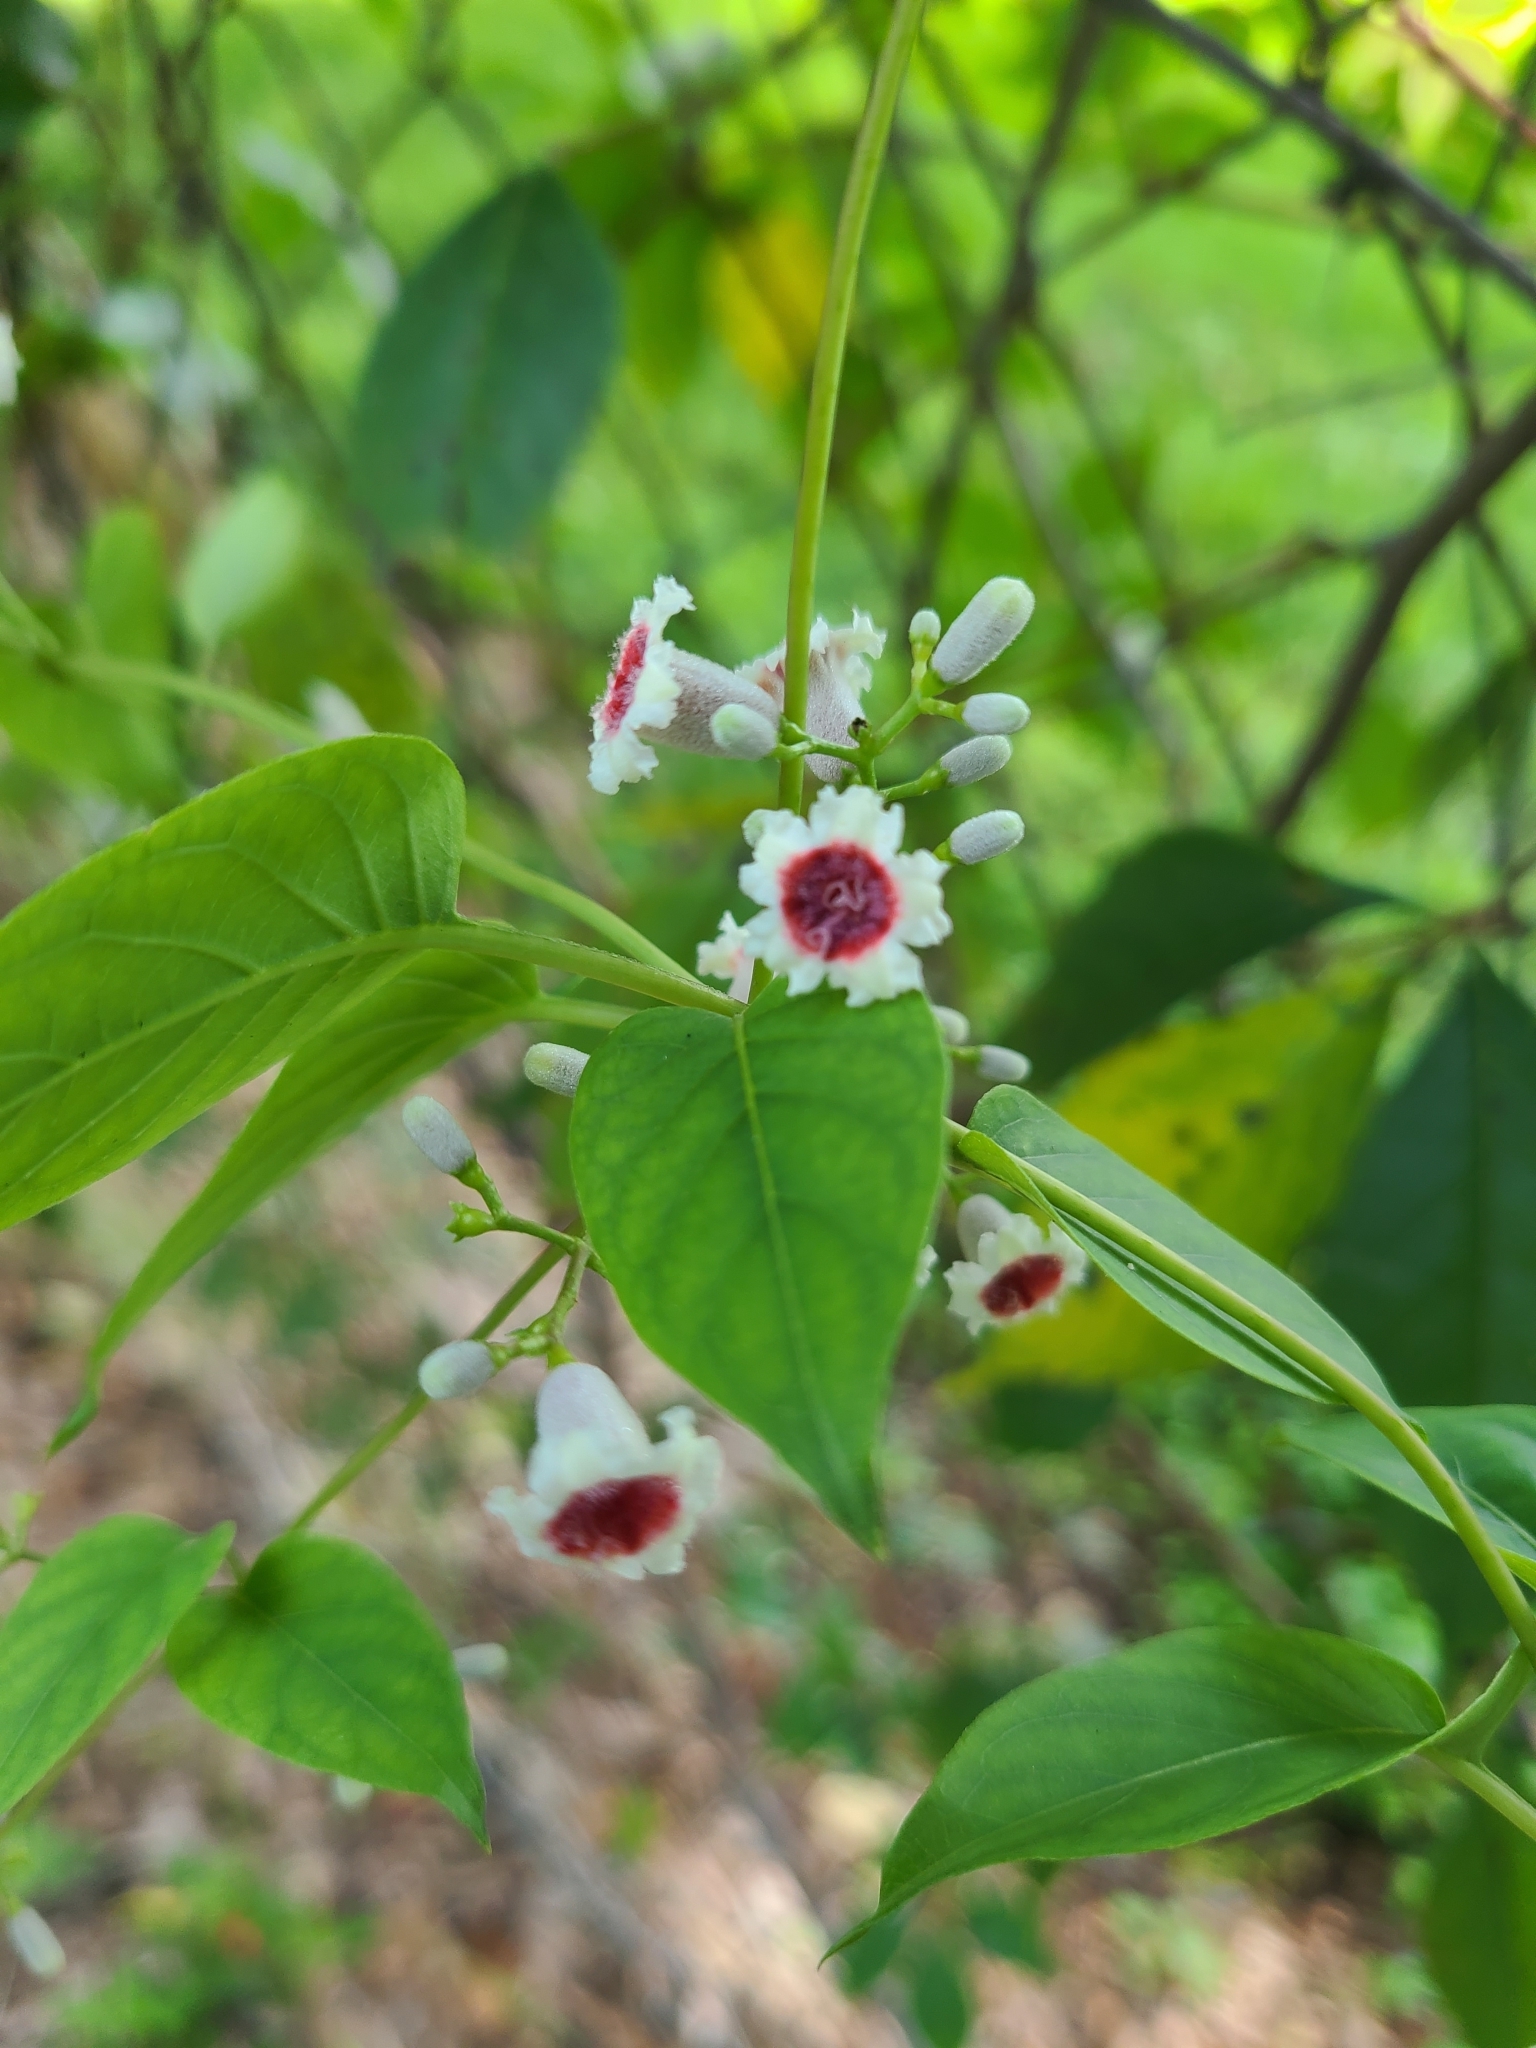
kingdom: Plantae
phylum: Tracheophyta
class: Magnoliopsida
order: Gentianales
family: Rubiaceae
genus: Paederia
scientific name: Paederia foetida
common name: Stinkvine
